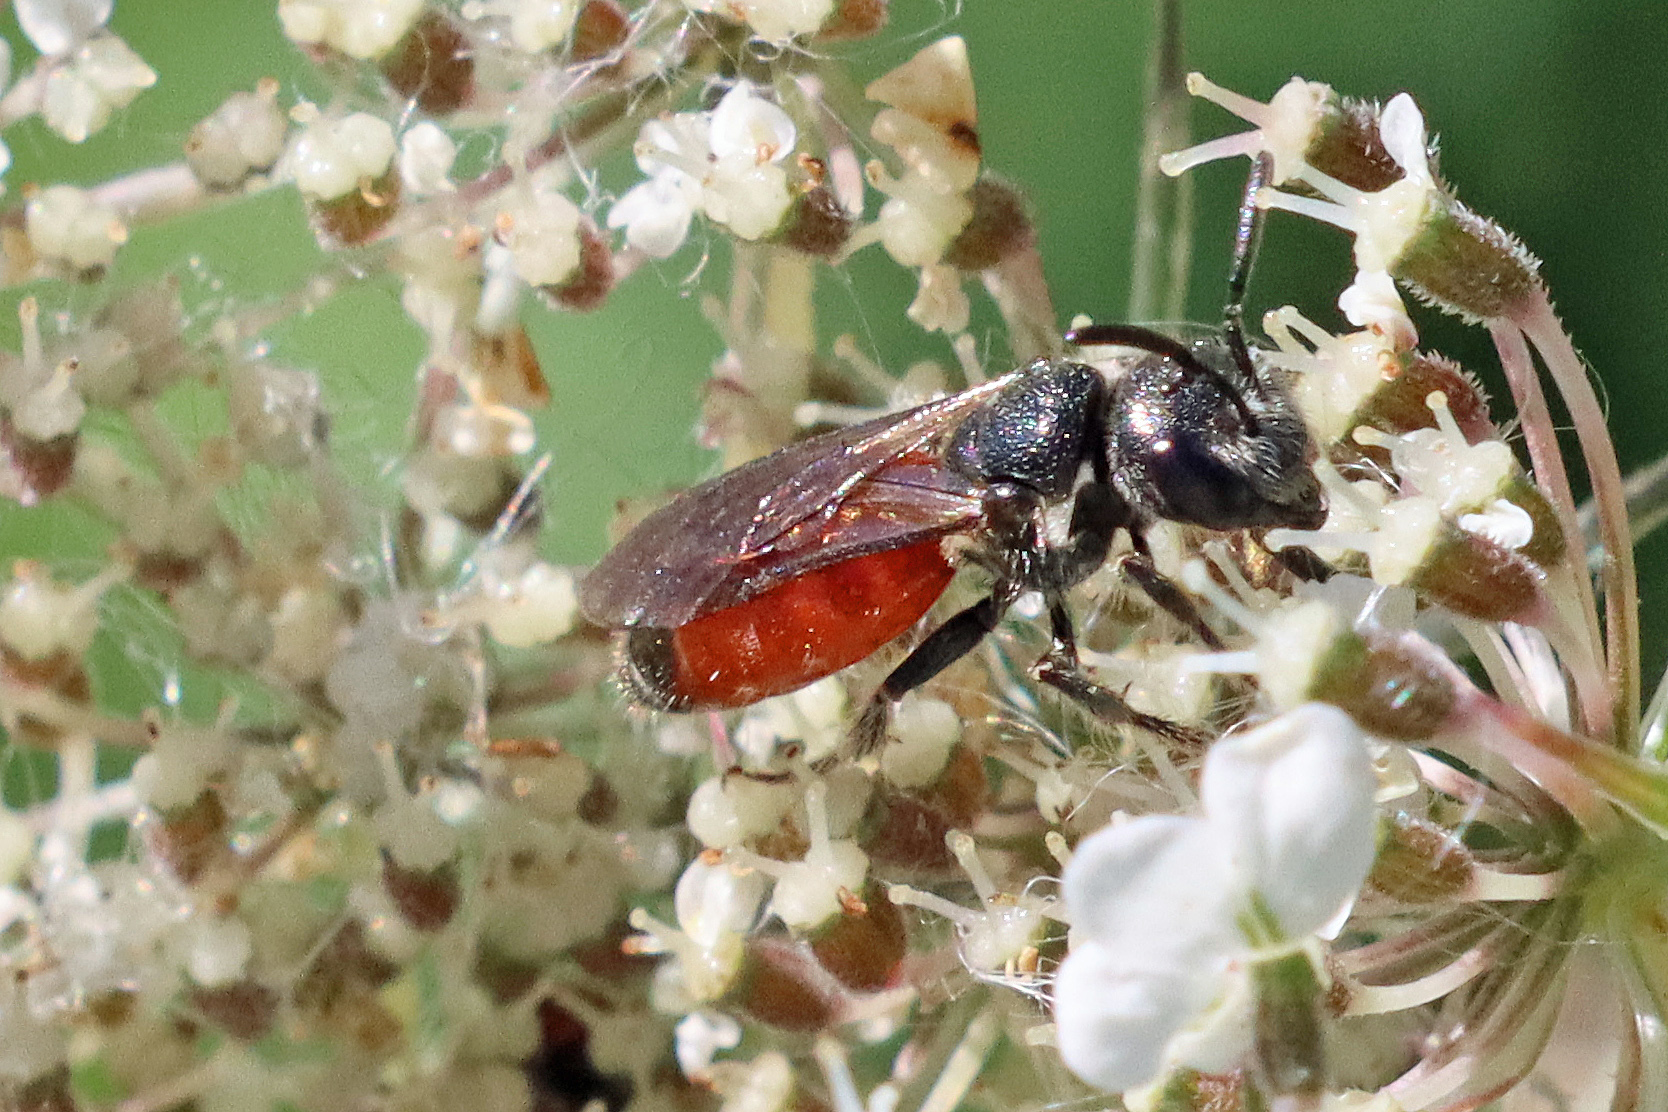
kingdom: Animalia
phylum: Arthropoda
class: Insecta
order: Hymenoptera
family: Halictidae
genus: Sphecodes
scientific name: Sphecodes
